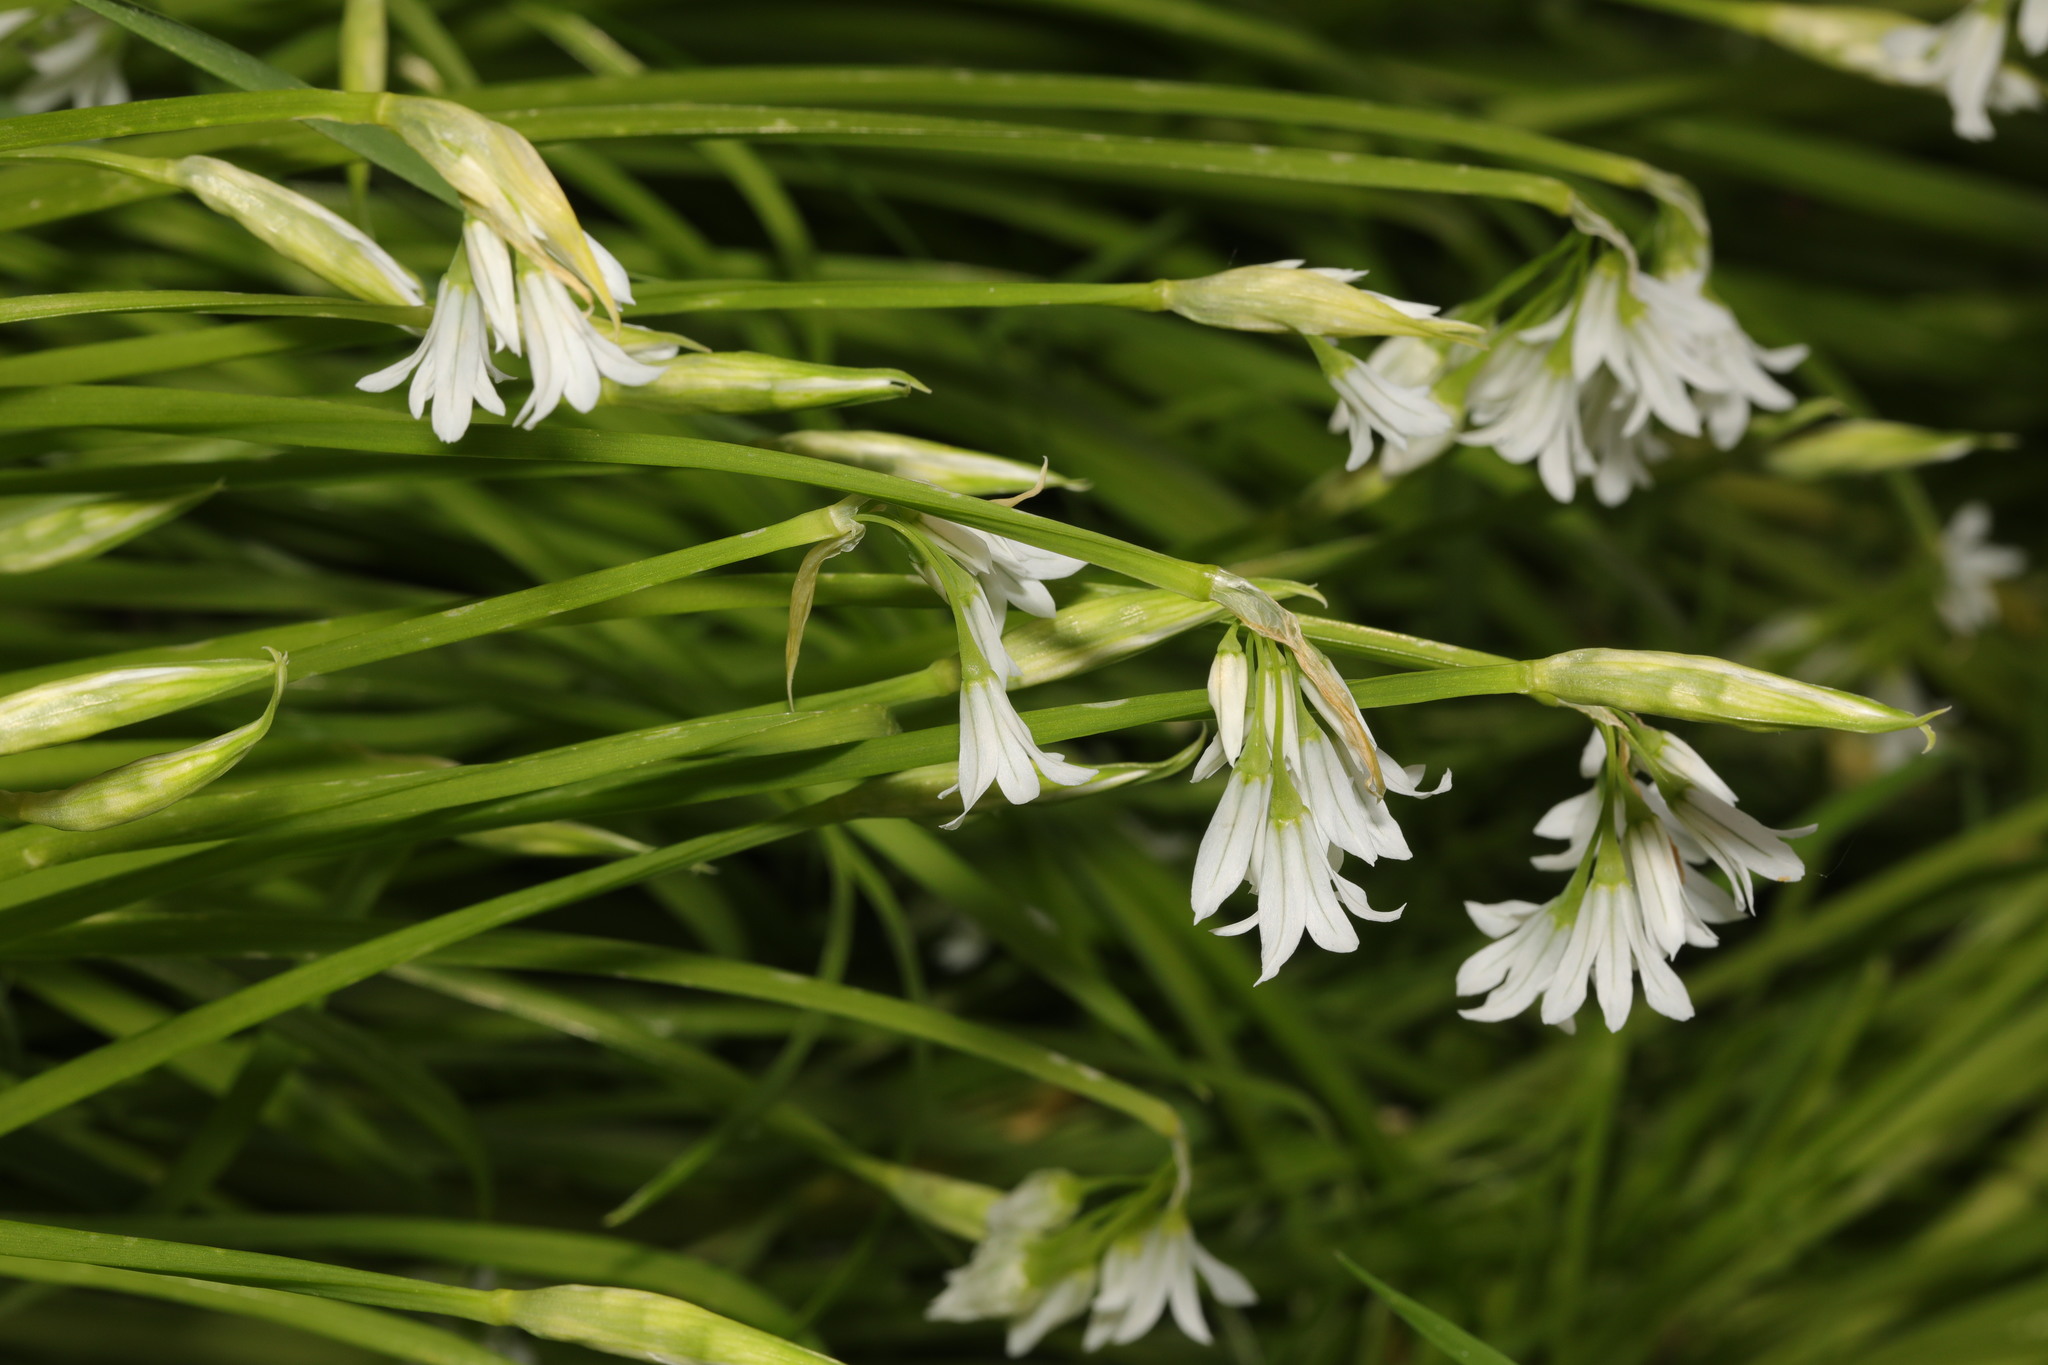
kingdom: Plantae
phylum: Tracheophyta
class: Liliopsida
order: Asparagales
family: Amaryllidaceae
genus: Allium
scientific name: Allium triquetrum
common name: Three-cornered garlic
